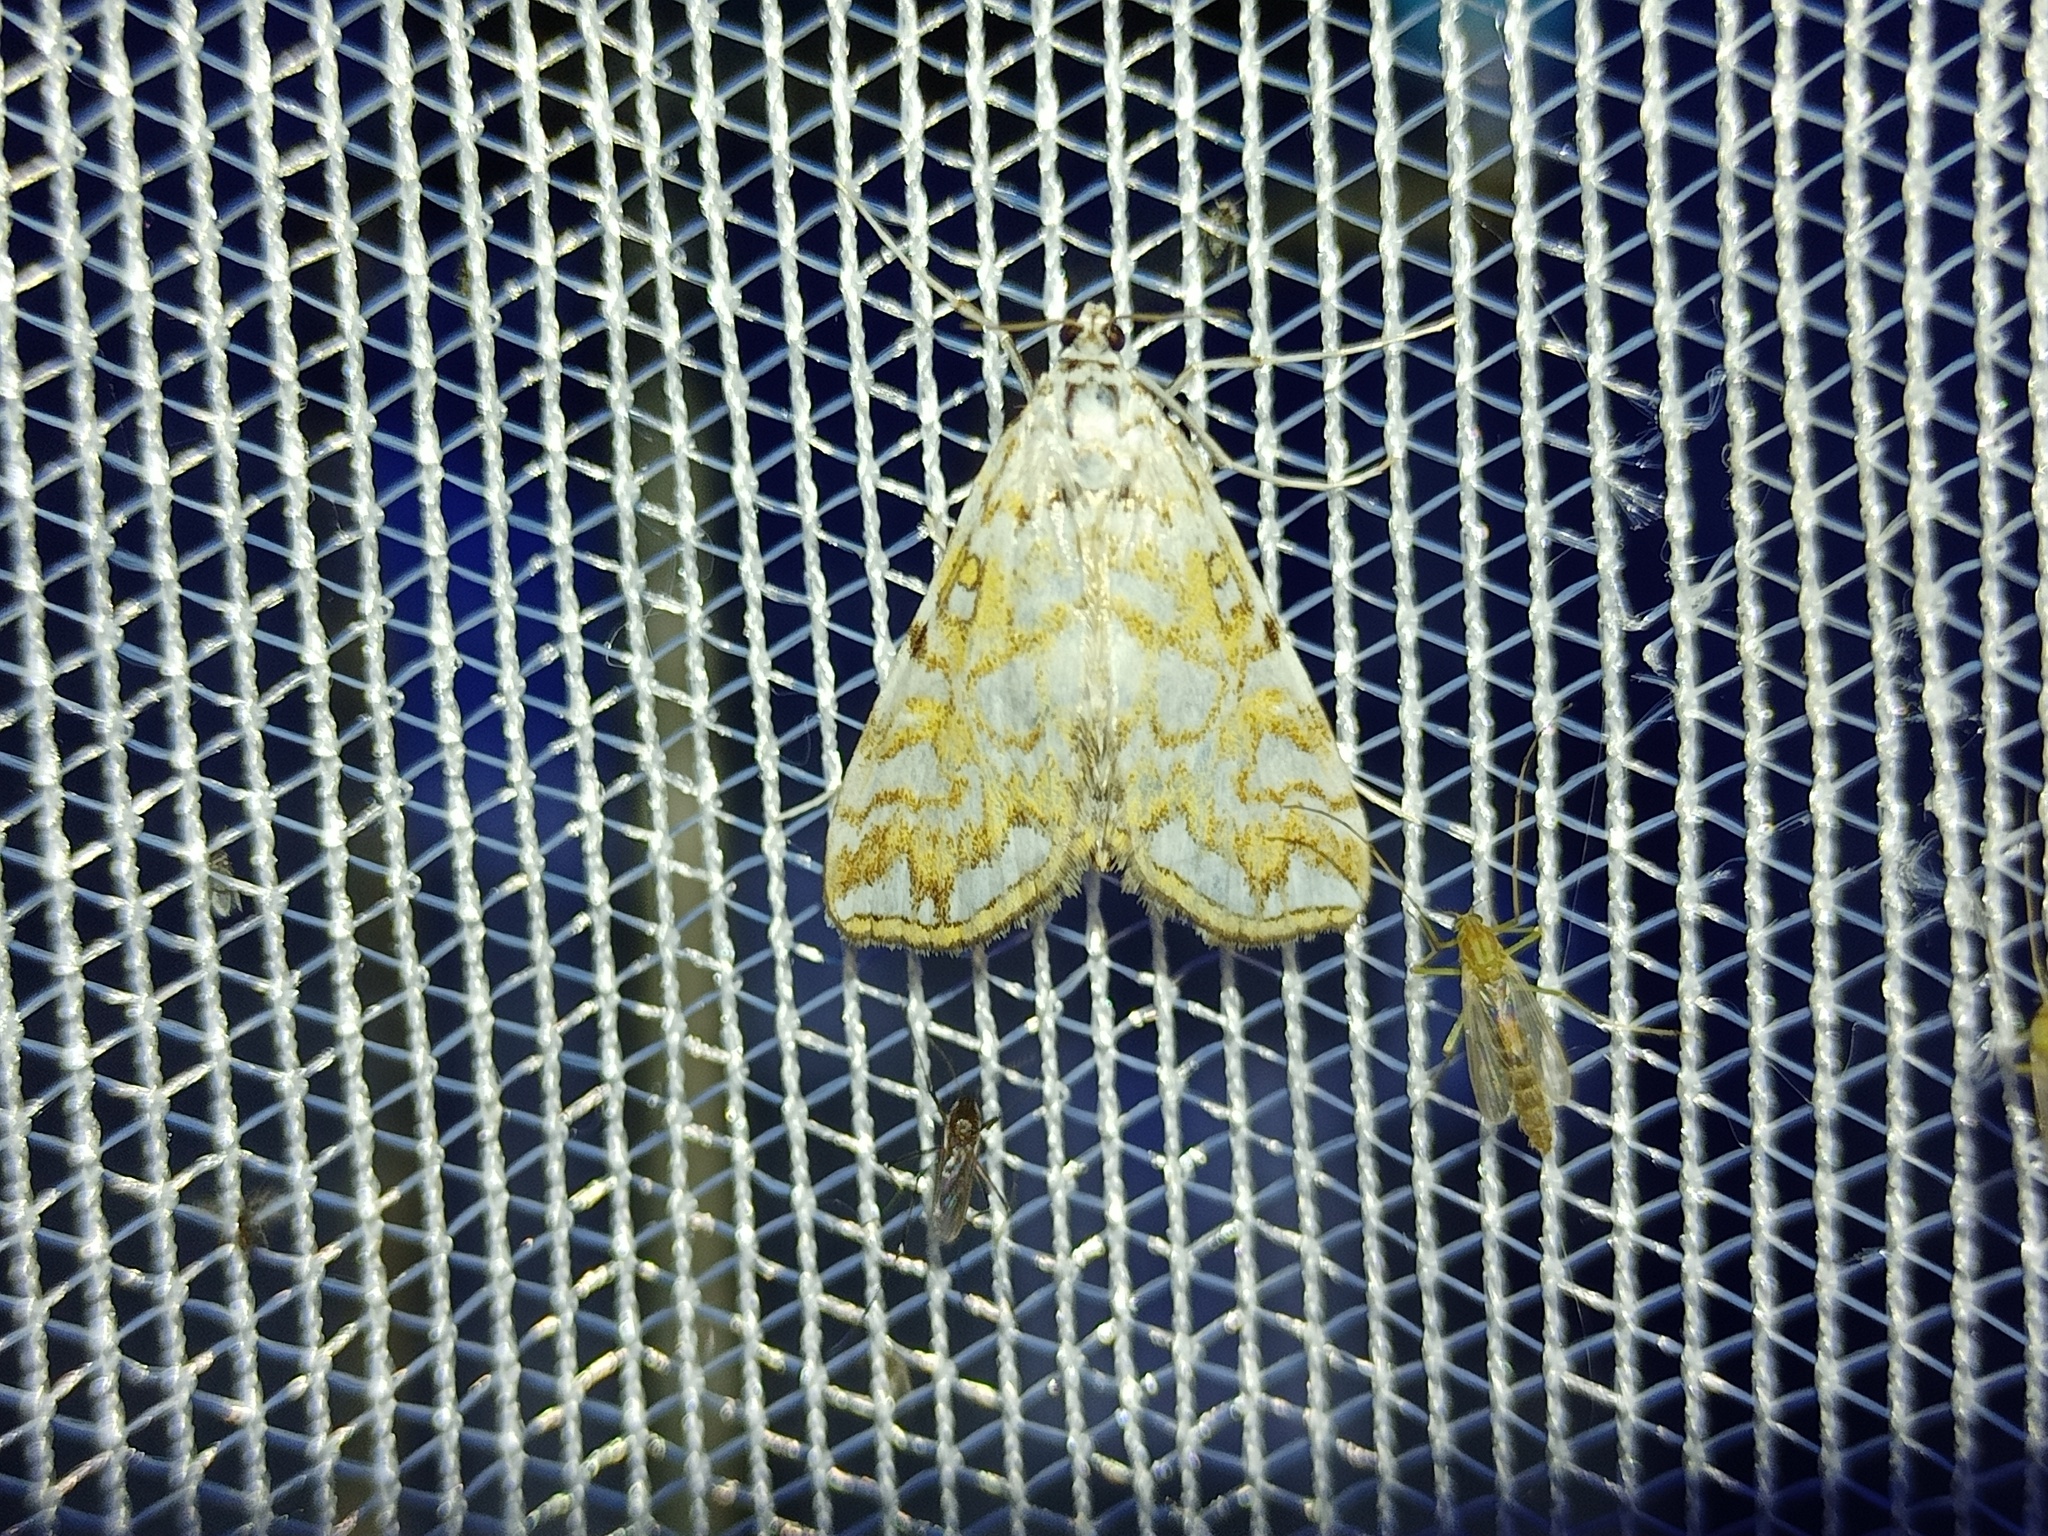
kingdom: Animalia
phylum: Arthropoda
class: Insecta
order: Lepidoptera
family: Crambidae
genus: Elophila
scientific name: Elophila nymphaeata
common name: Brown china-mark
